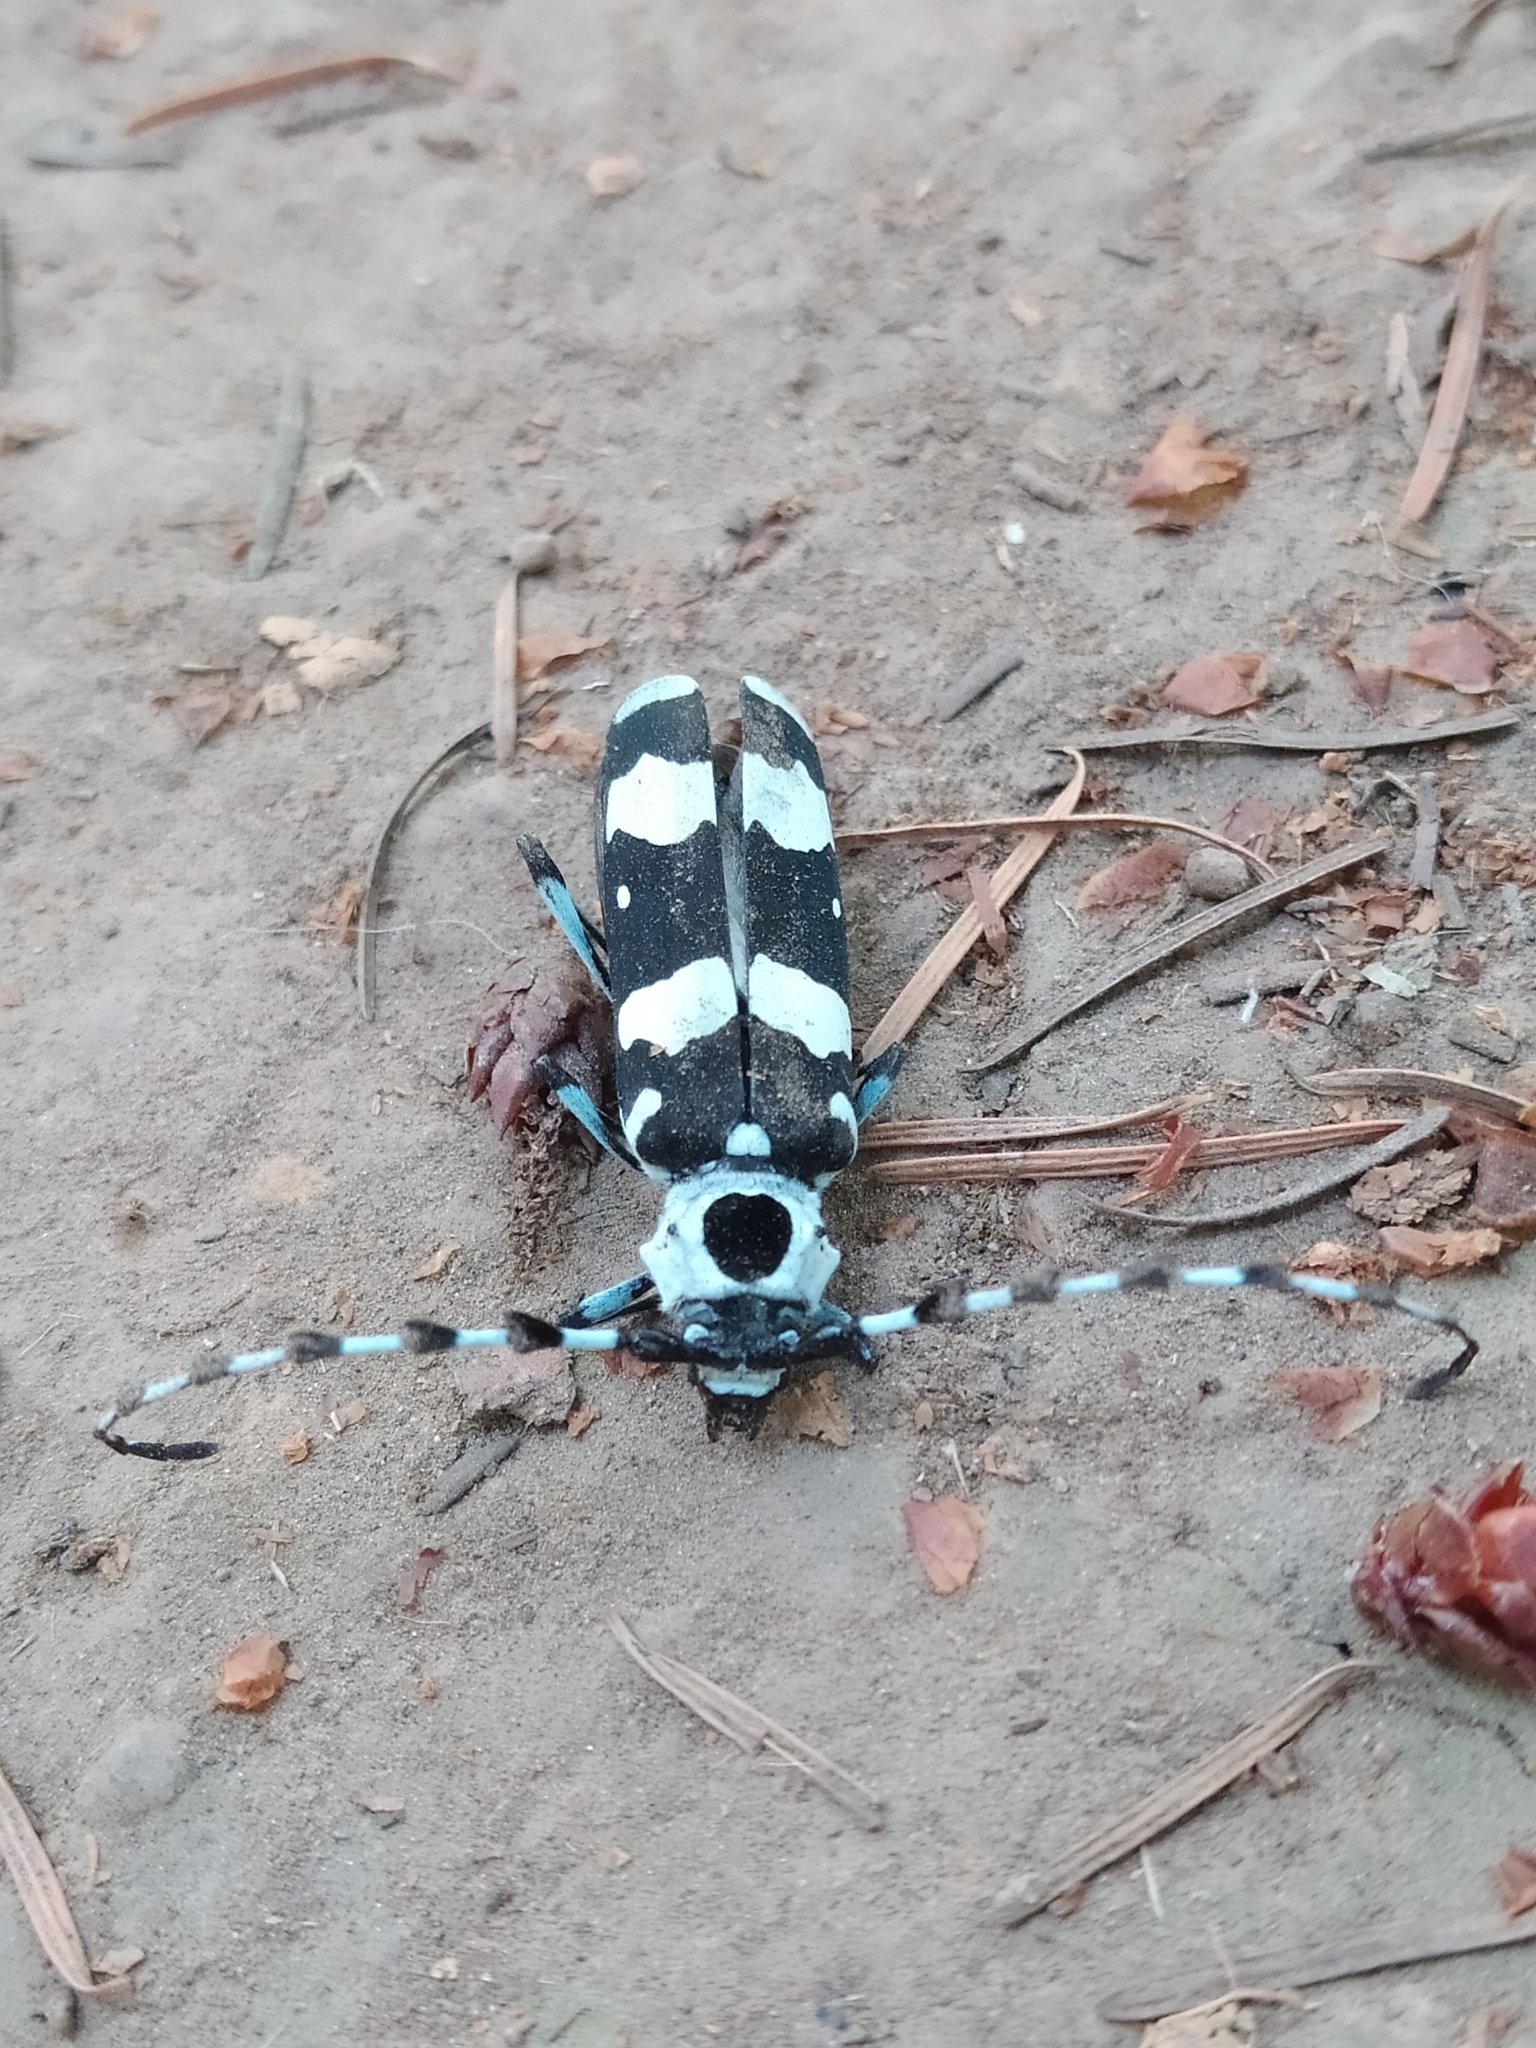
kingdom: Animalia
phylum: Arthropoda
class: Insecta
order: Coleoptera
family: Cerambycidae
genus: Rosalia
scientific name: Rosalia funebris
